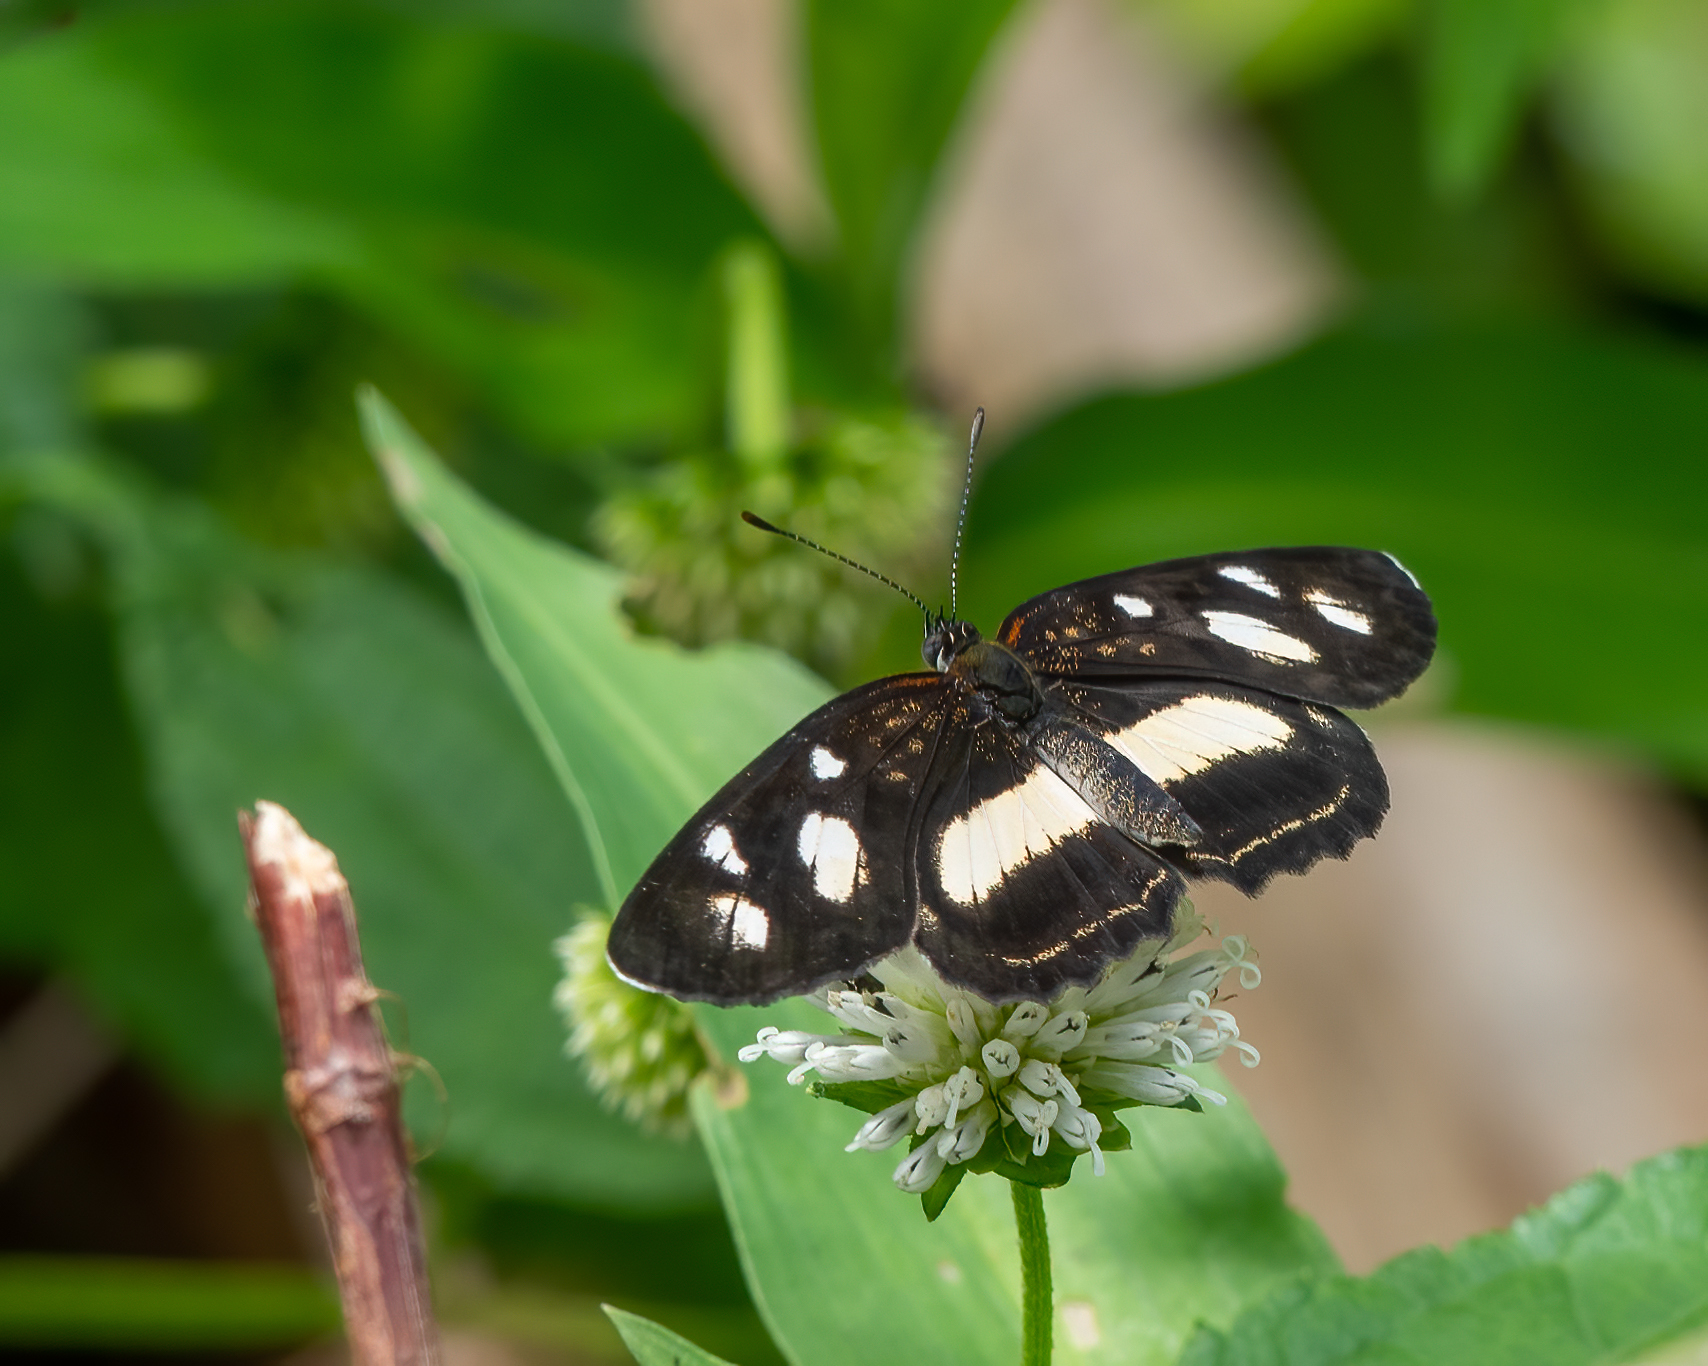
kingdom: Animalia
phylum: Arthropoda
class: Insecta
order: Lepidoptera
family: Nymphalidae
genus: Eresia
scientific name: Eresia clio
